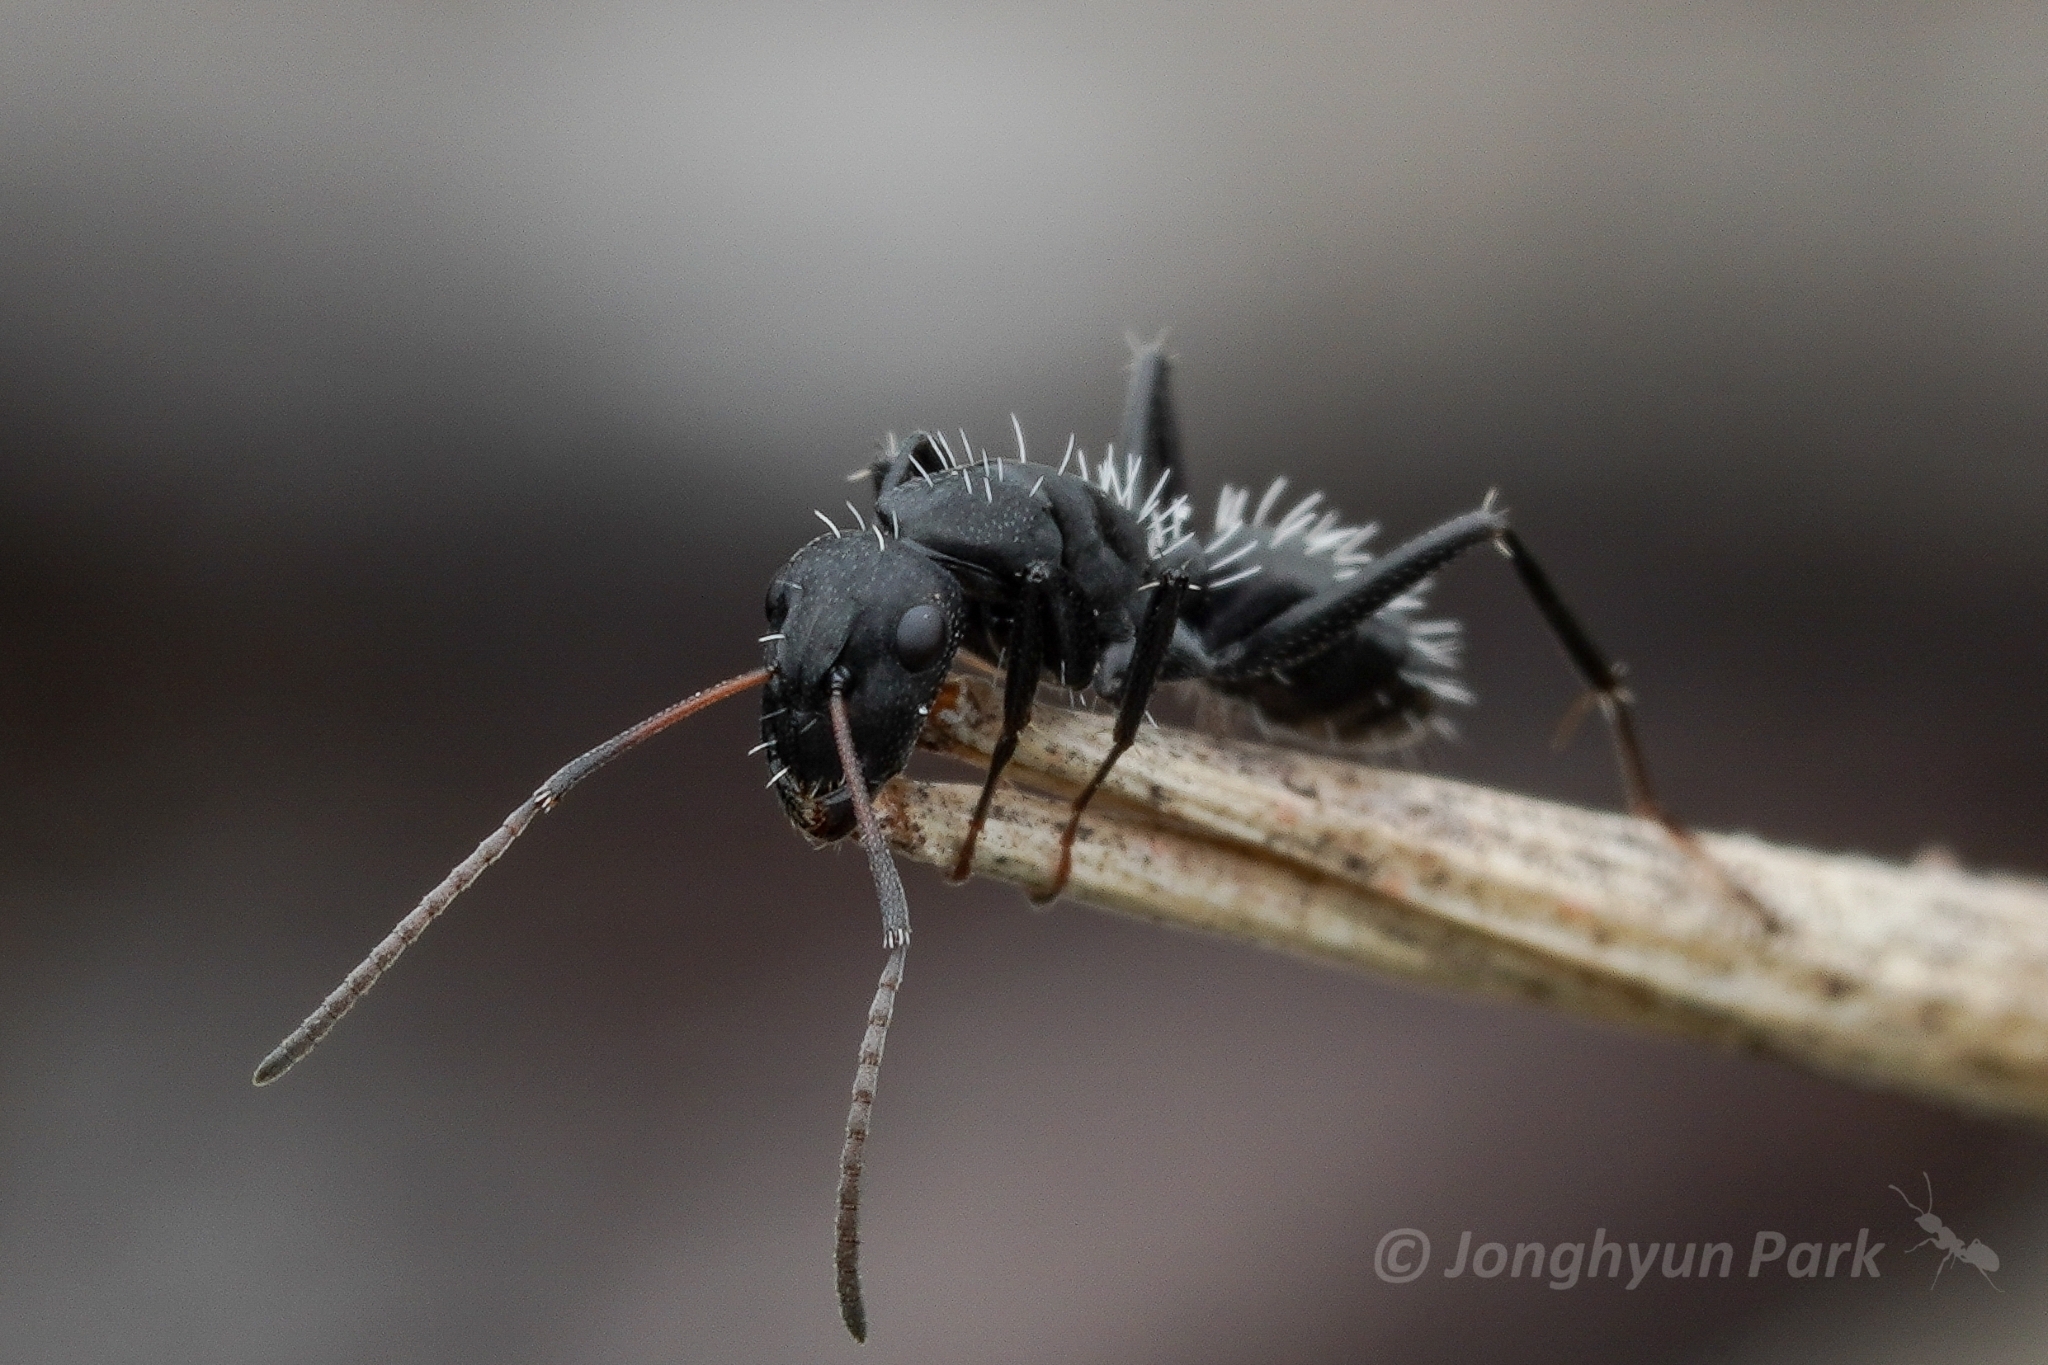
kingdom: Animalia
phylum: Arthropoda
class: Insecta
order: Hymenoptera
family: Formicidae
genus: Camponotus
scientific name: Camponotus niveosetosus
